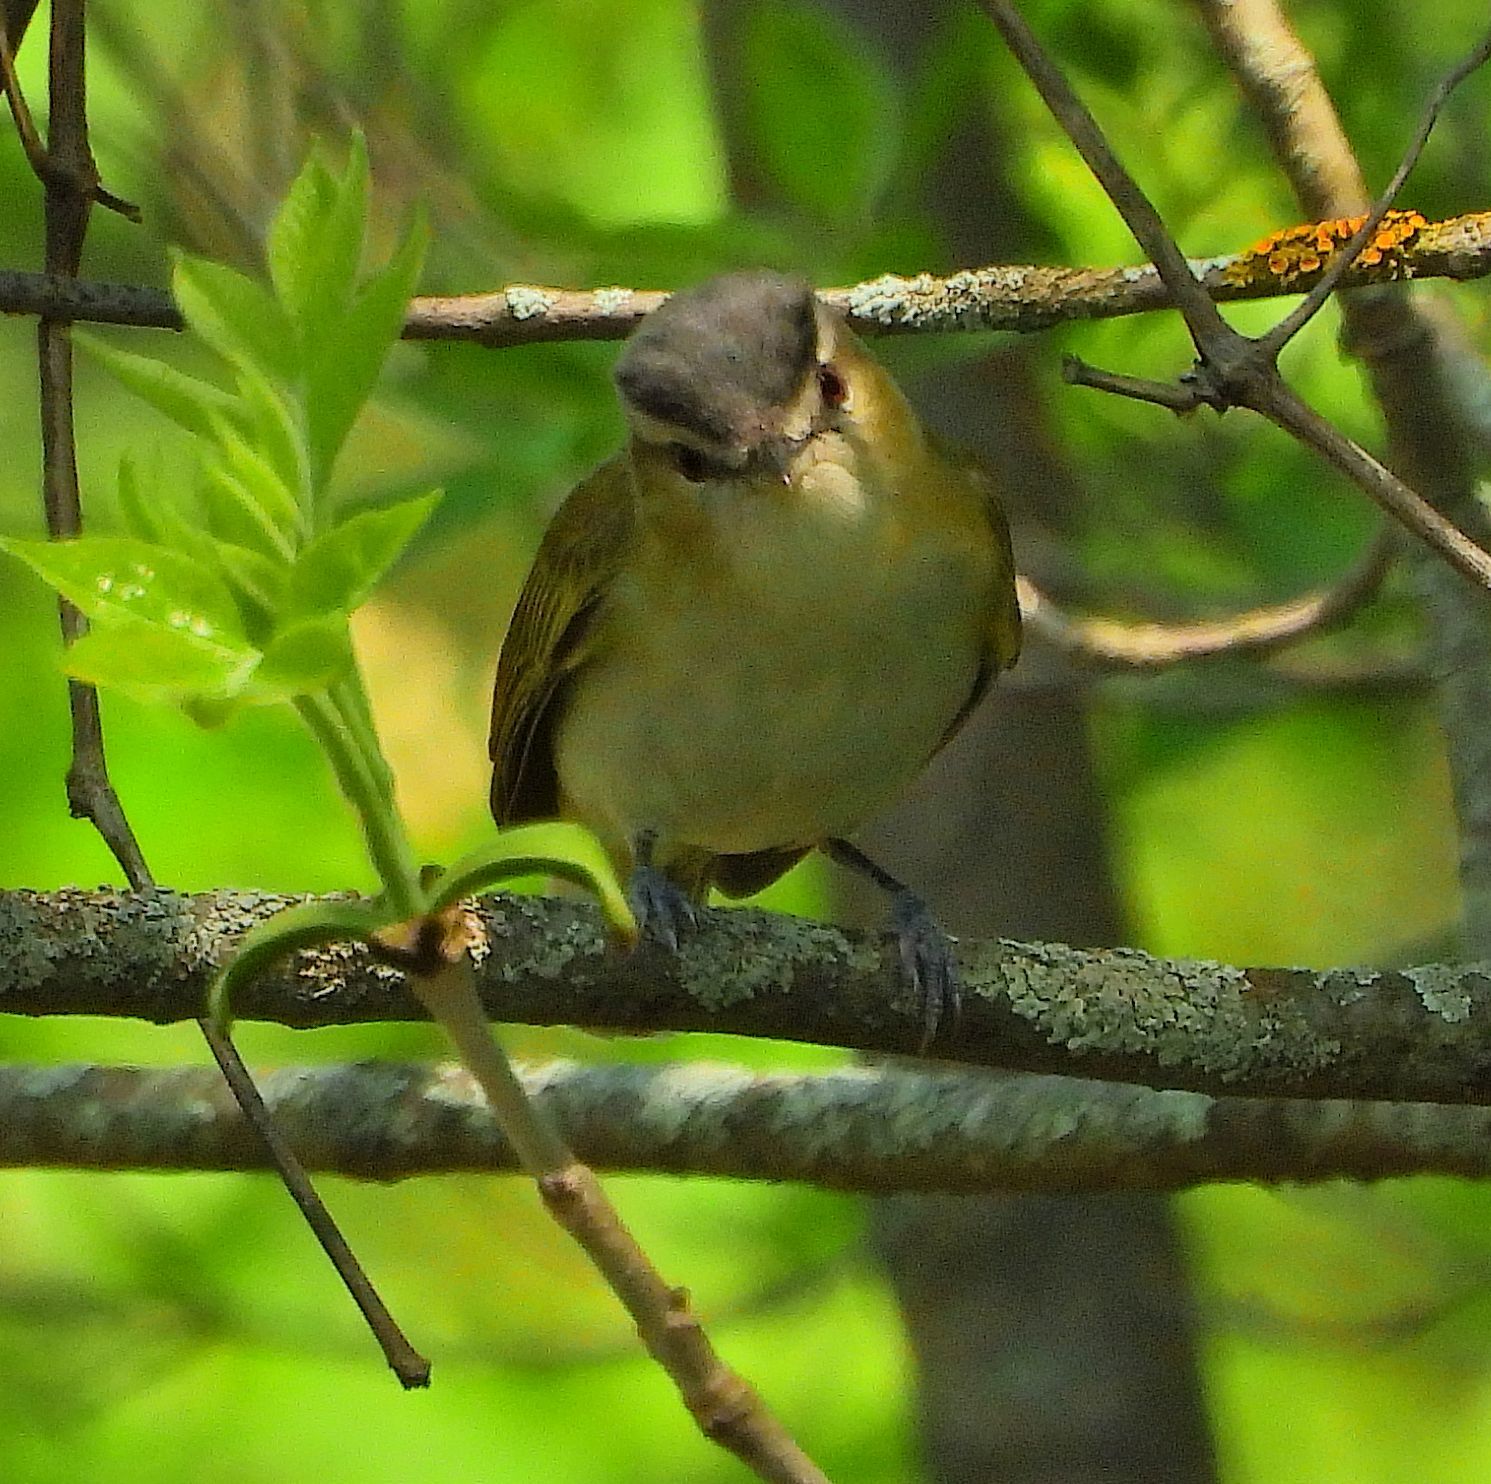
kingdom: Animalia
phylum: Chordata
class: Aves
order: Passeriformes
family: Vireonidae
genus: Vireo
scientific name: Vireo olivaceus
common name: Red-eyed vireo
